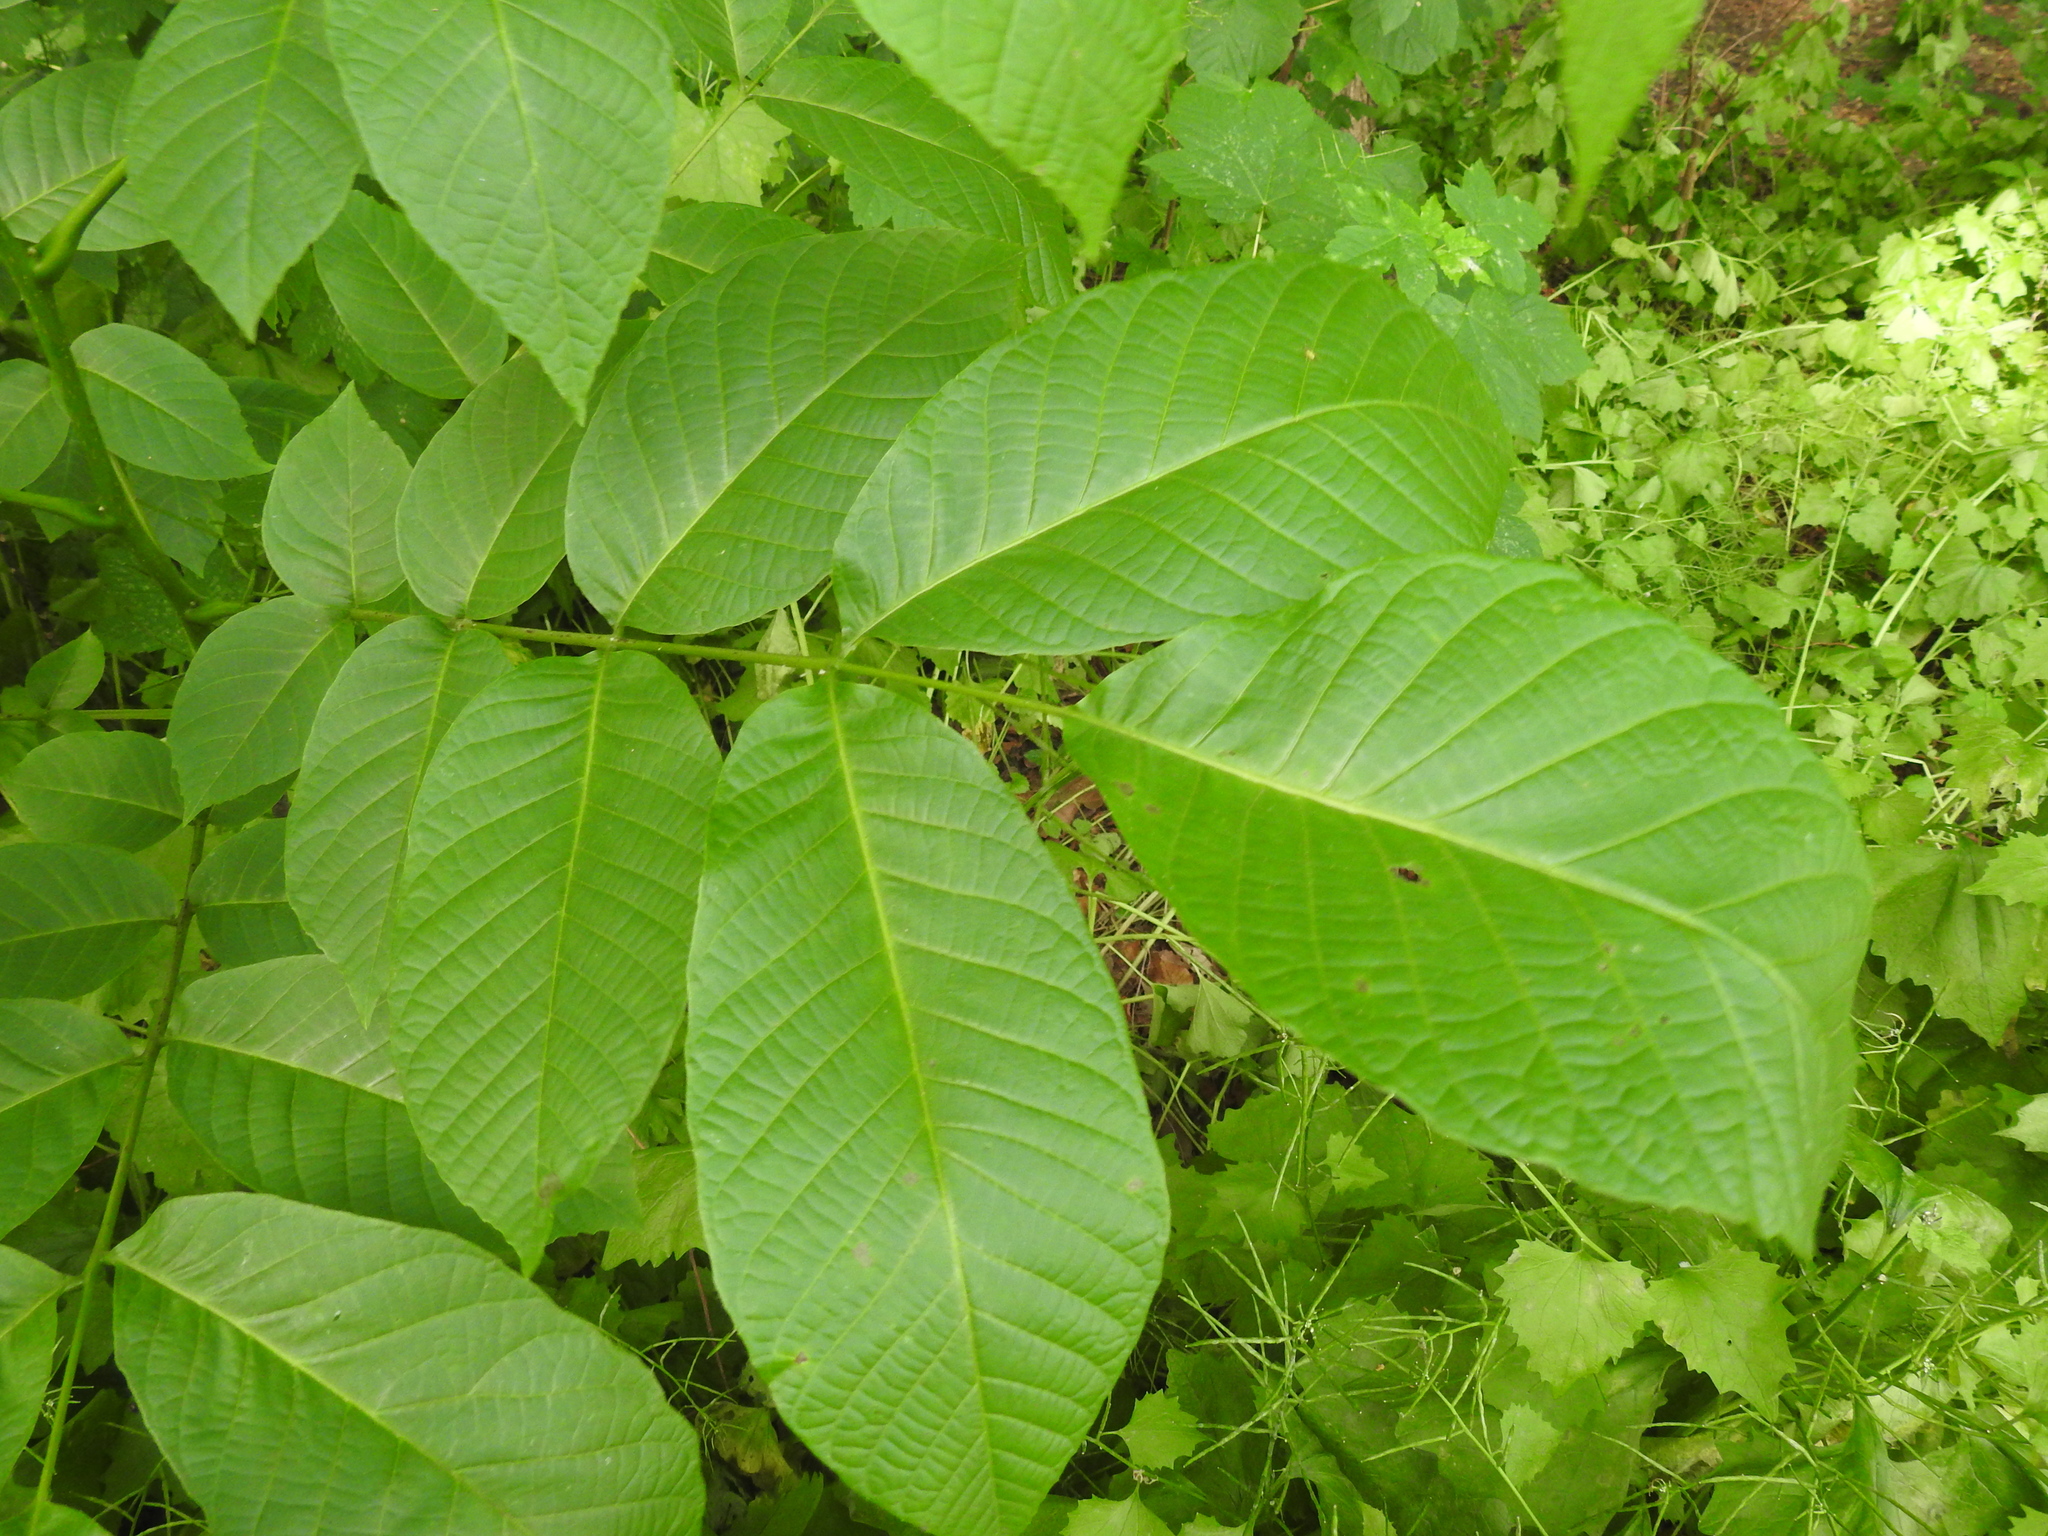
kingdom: Plantae
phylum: Tracheophyta
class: Magnoliopsida
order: Fagales
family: Juglandaceae
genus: Juglans
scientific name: Juglans regia
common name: Walnut
